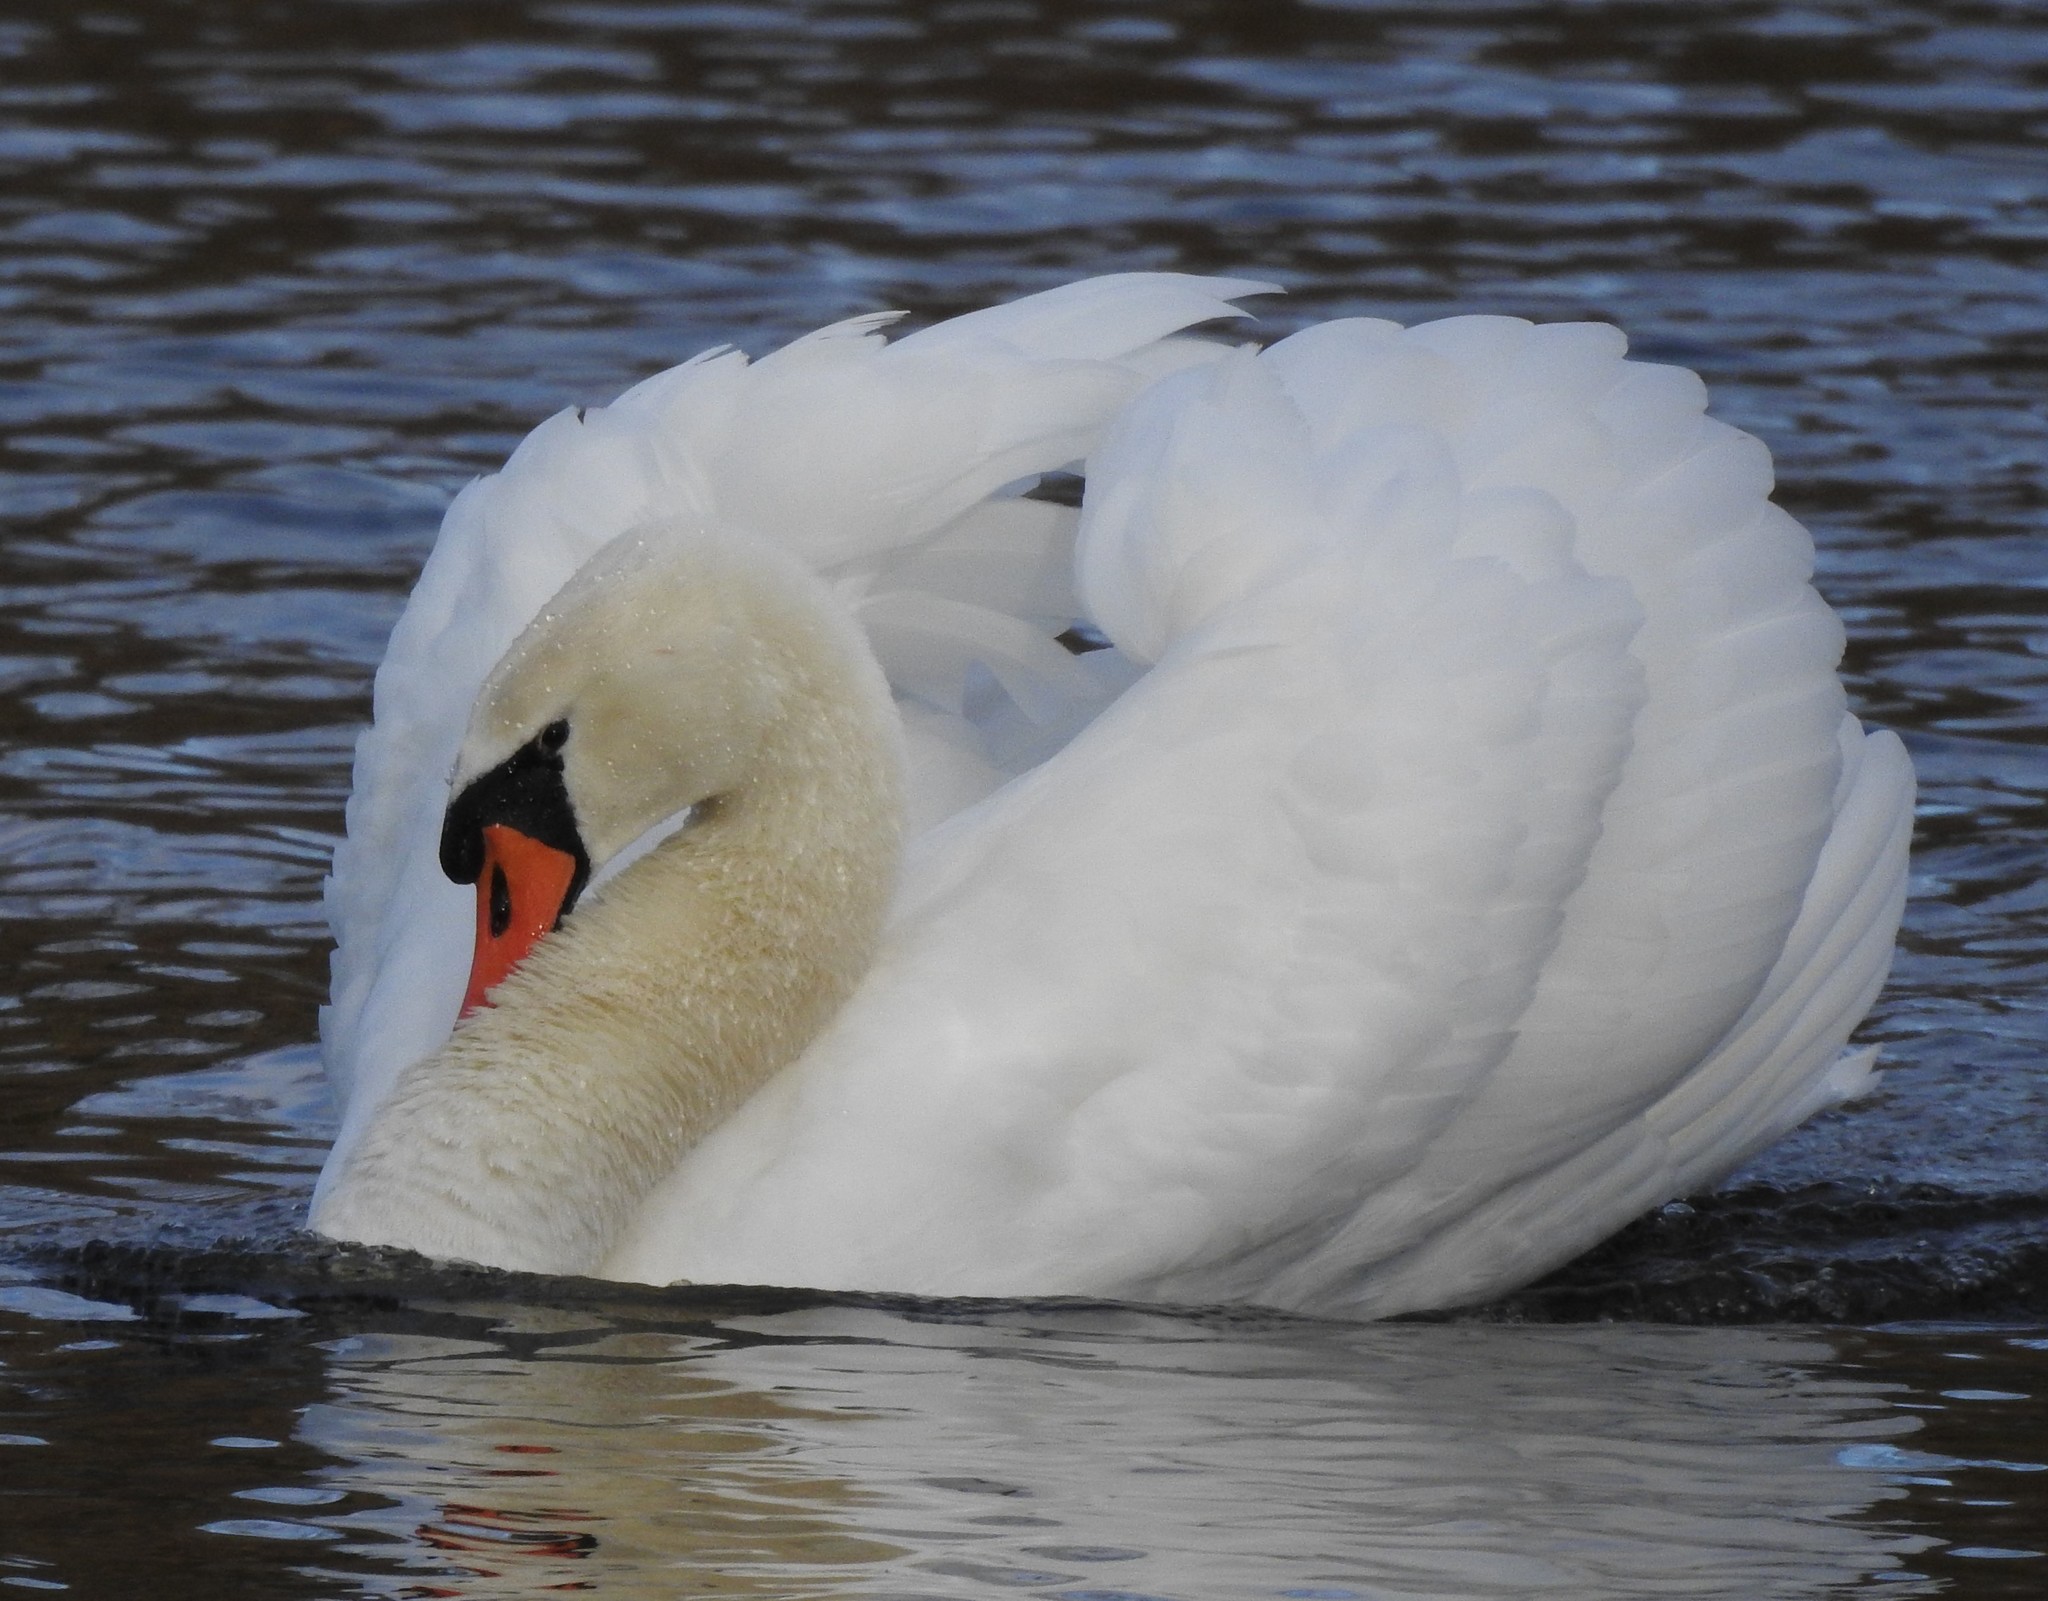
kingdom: Animalia
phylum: Chordata
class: Aves
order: Anseriformes
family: Anatidae
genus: Cygnus
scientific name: Cygnus olor
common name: Mute swan
